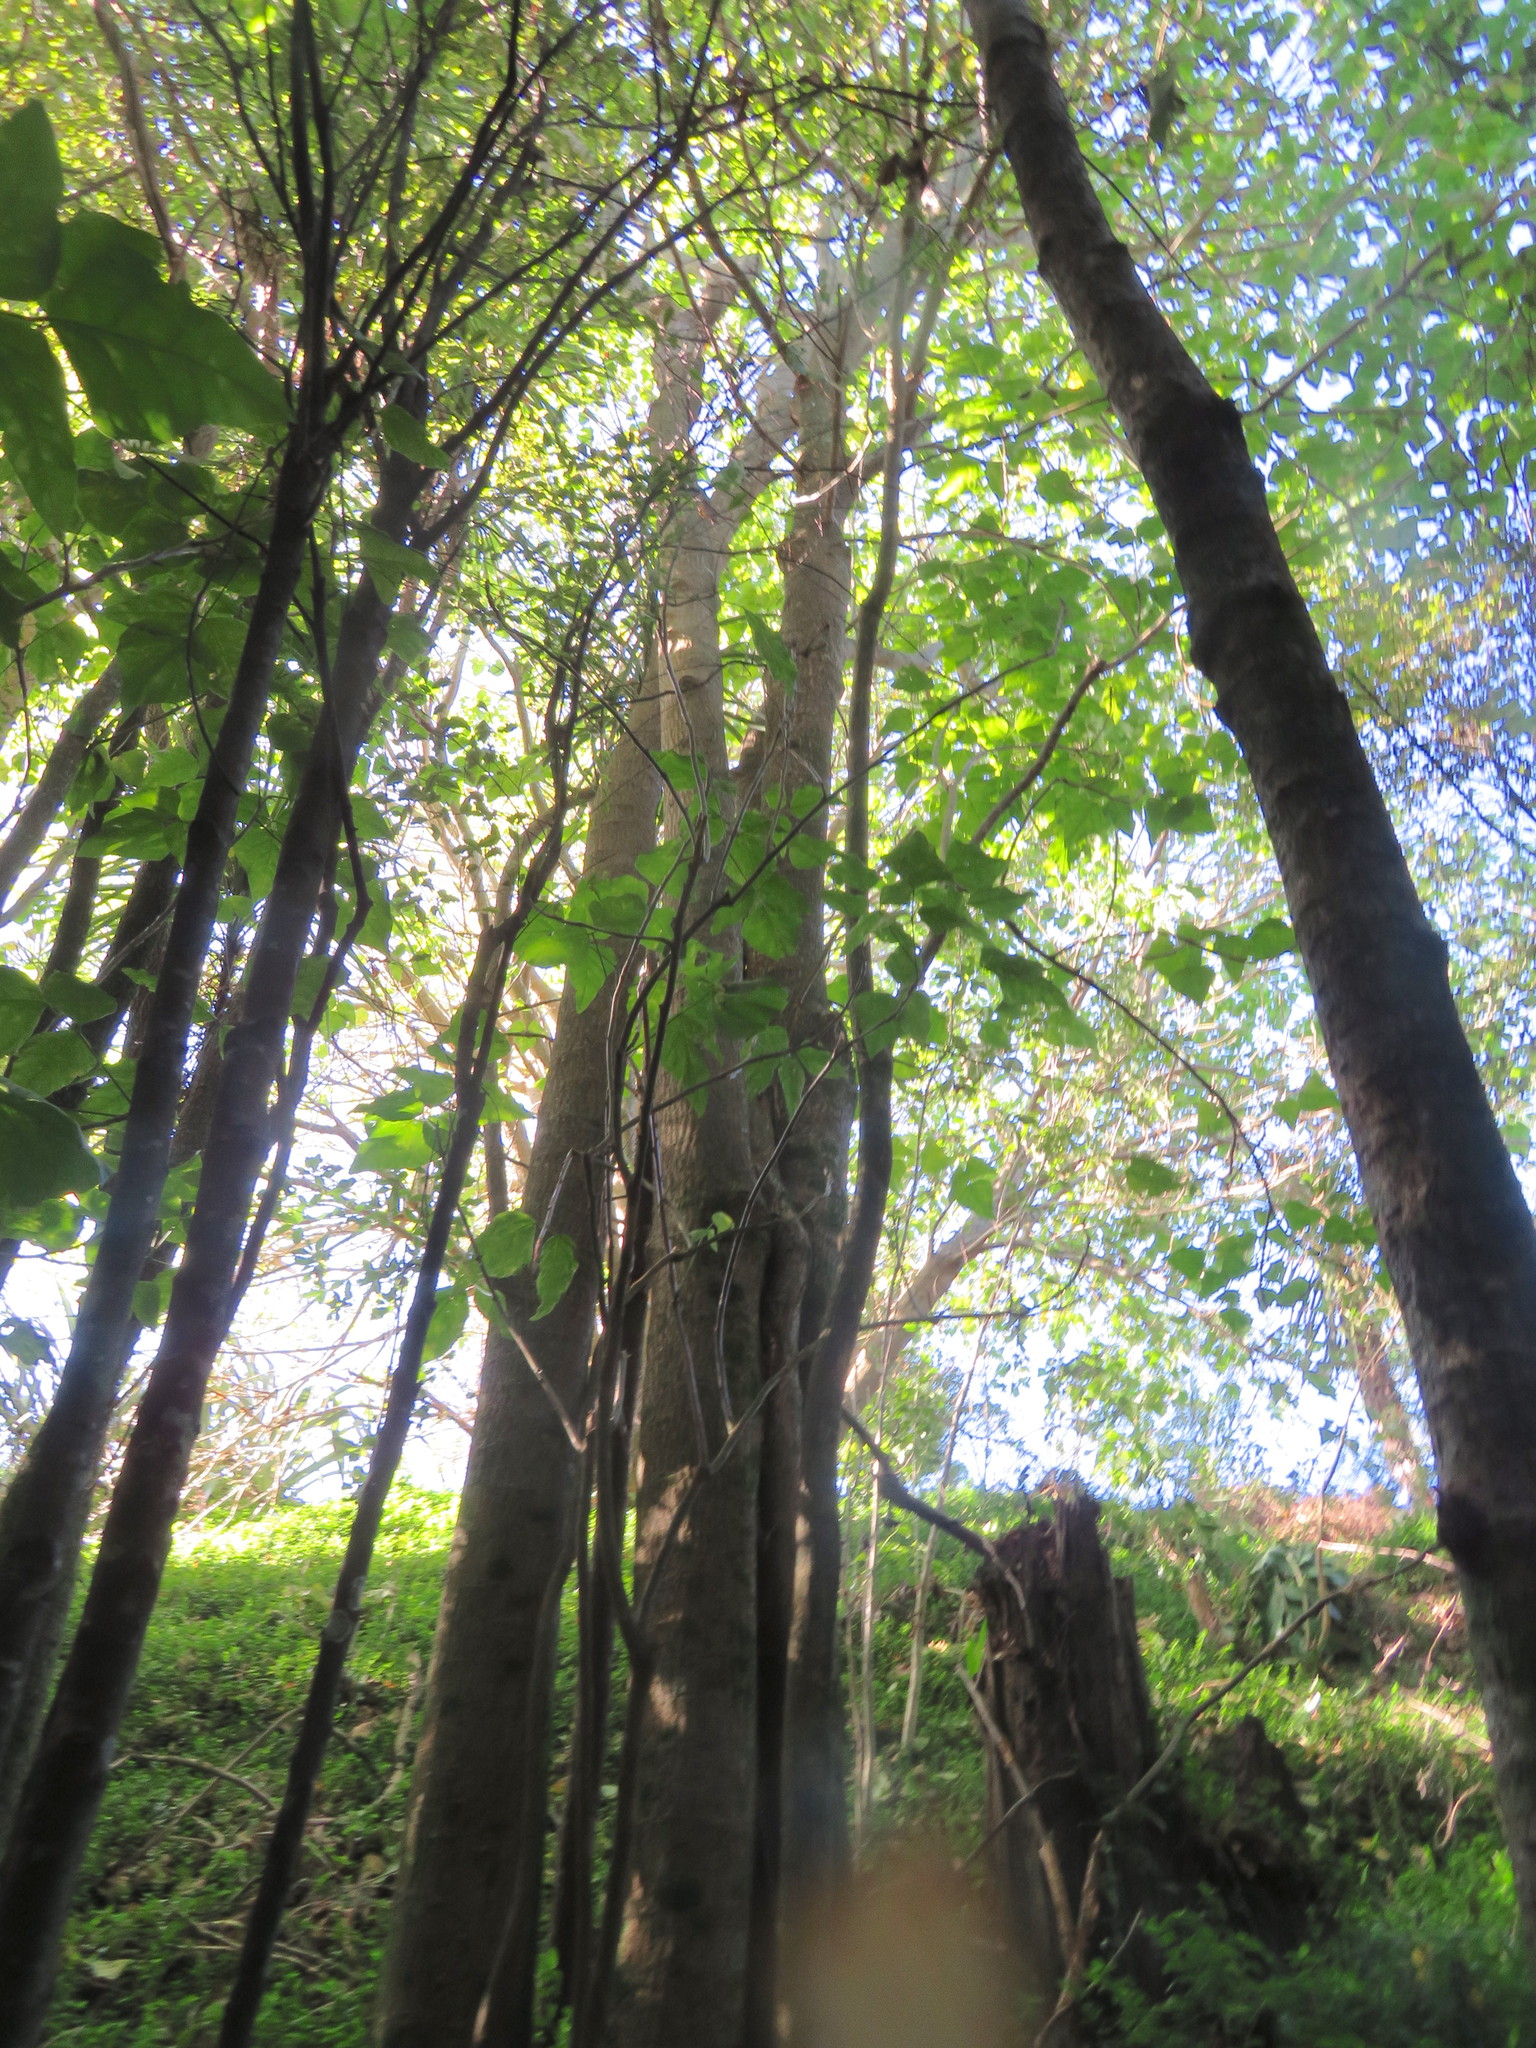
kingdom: Plantae
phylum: Tracheophyta
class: Magnoliopsida
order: Fabales
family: Fabaceae
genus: Erythrina
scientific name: Erythrina sykesii
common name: Coraltree
